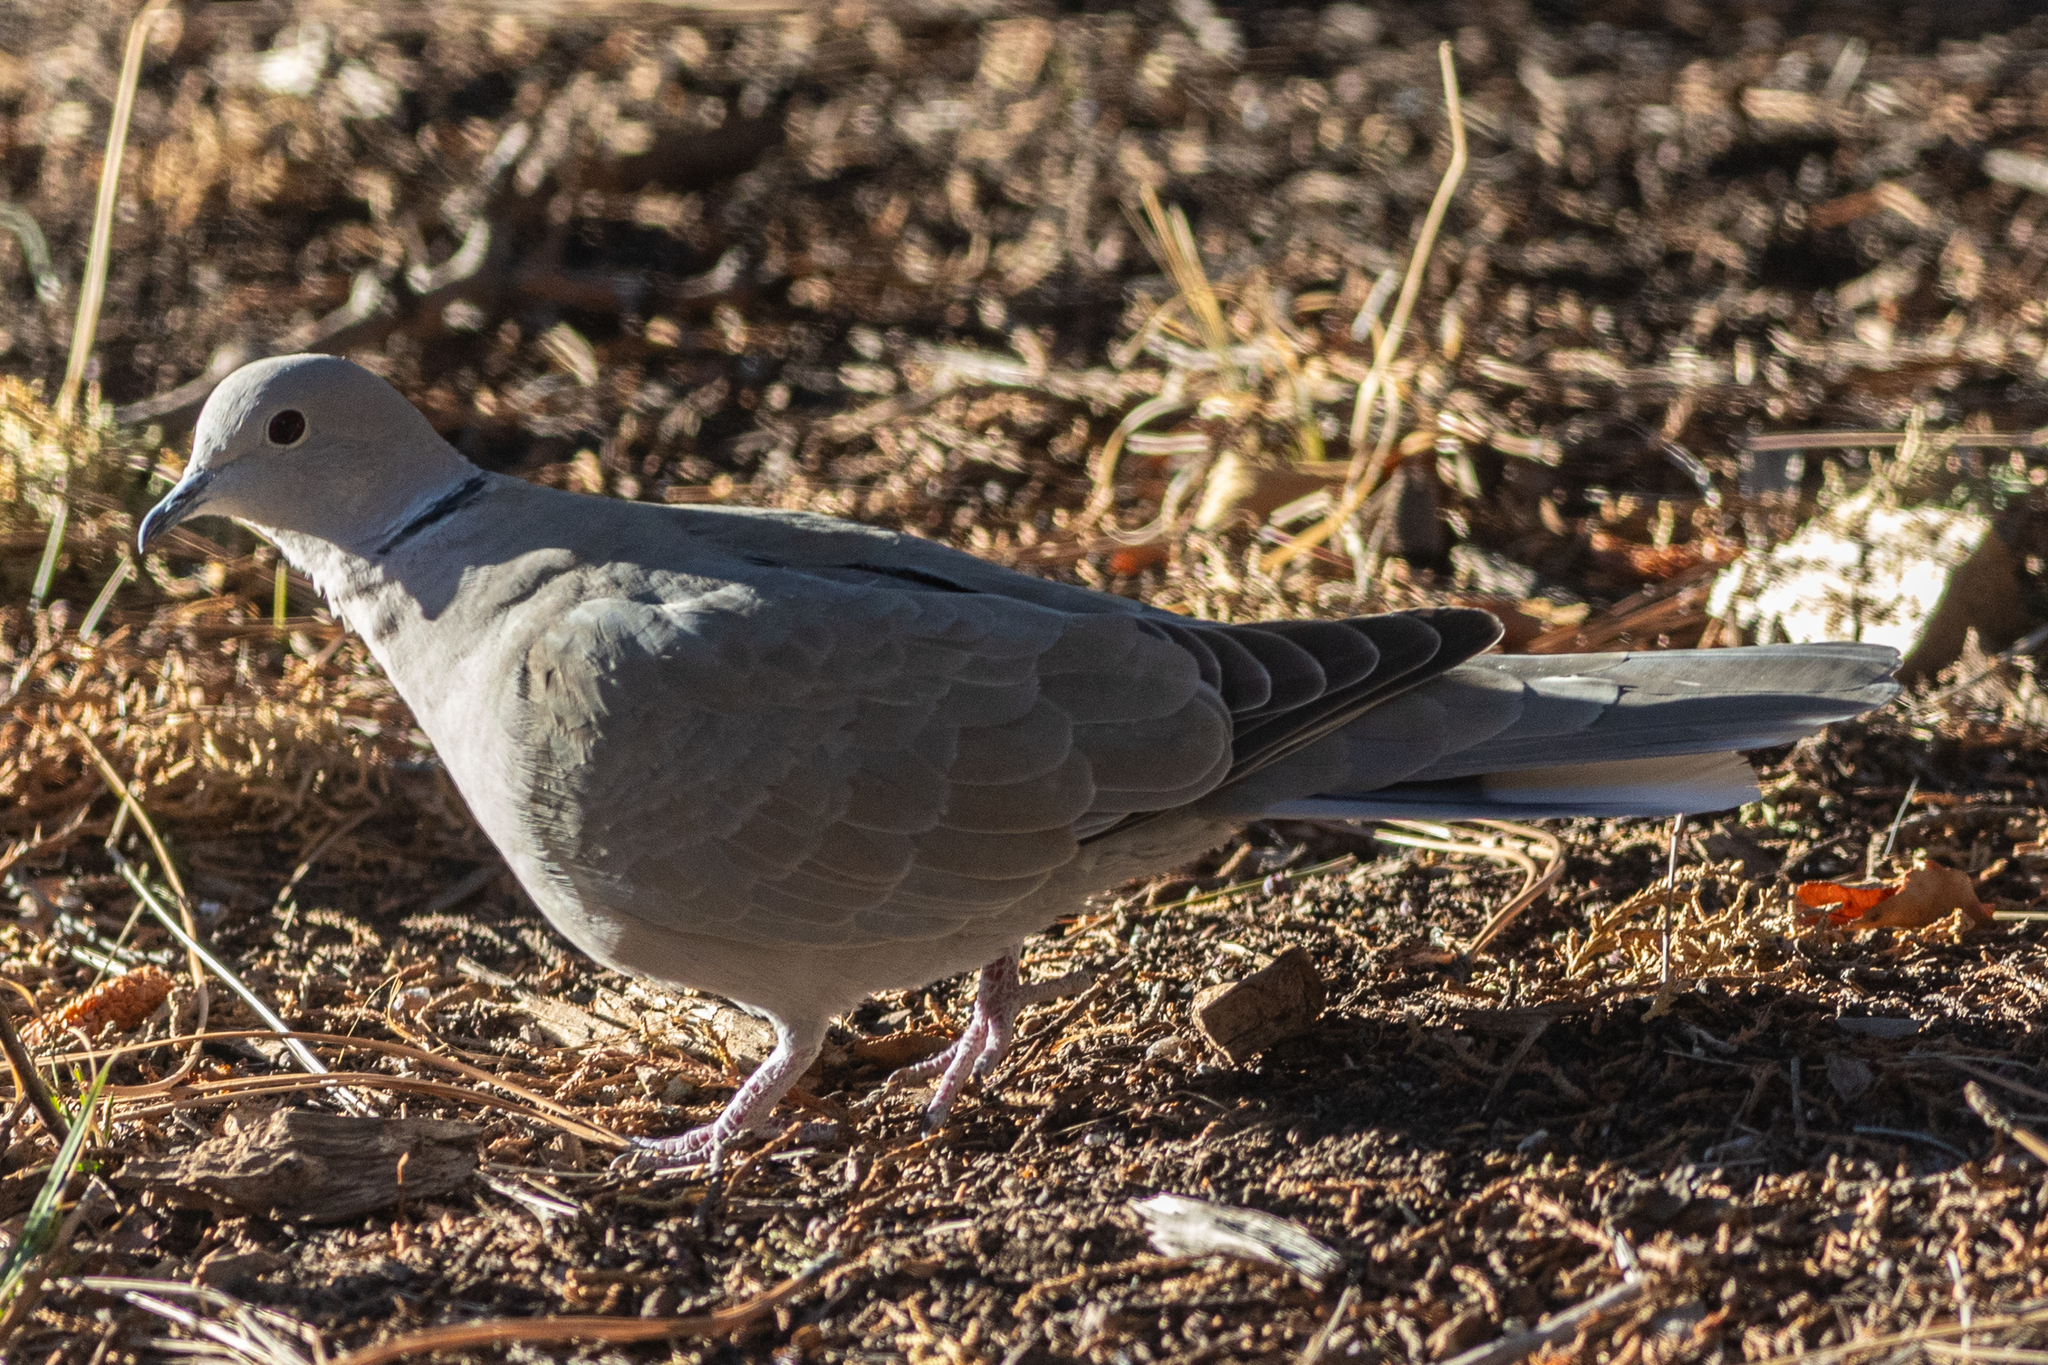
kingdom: Animalia
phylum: Chordata
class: Aves
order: Columbiformes
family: Columbidae
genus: Streptopelia
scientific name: Streptopelia decaocto
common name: Eurasian collared dove
